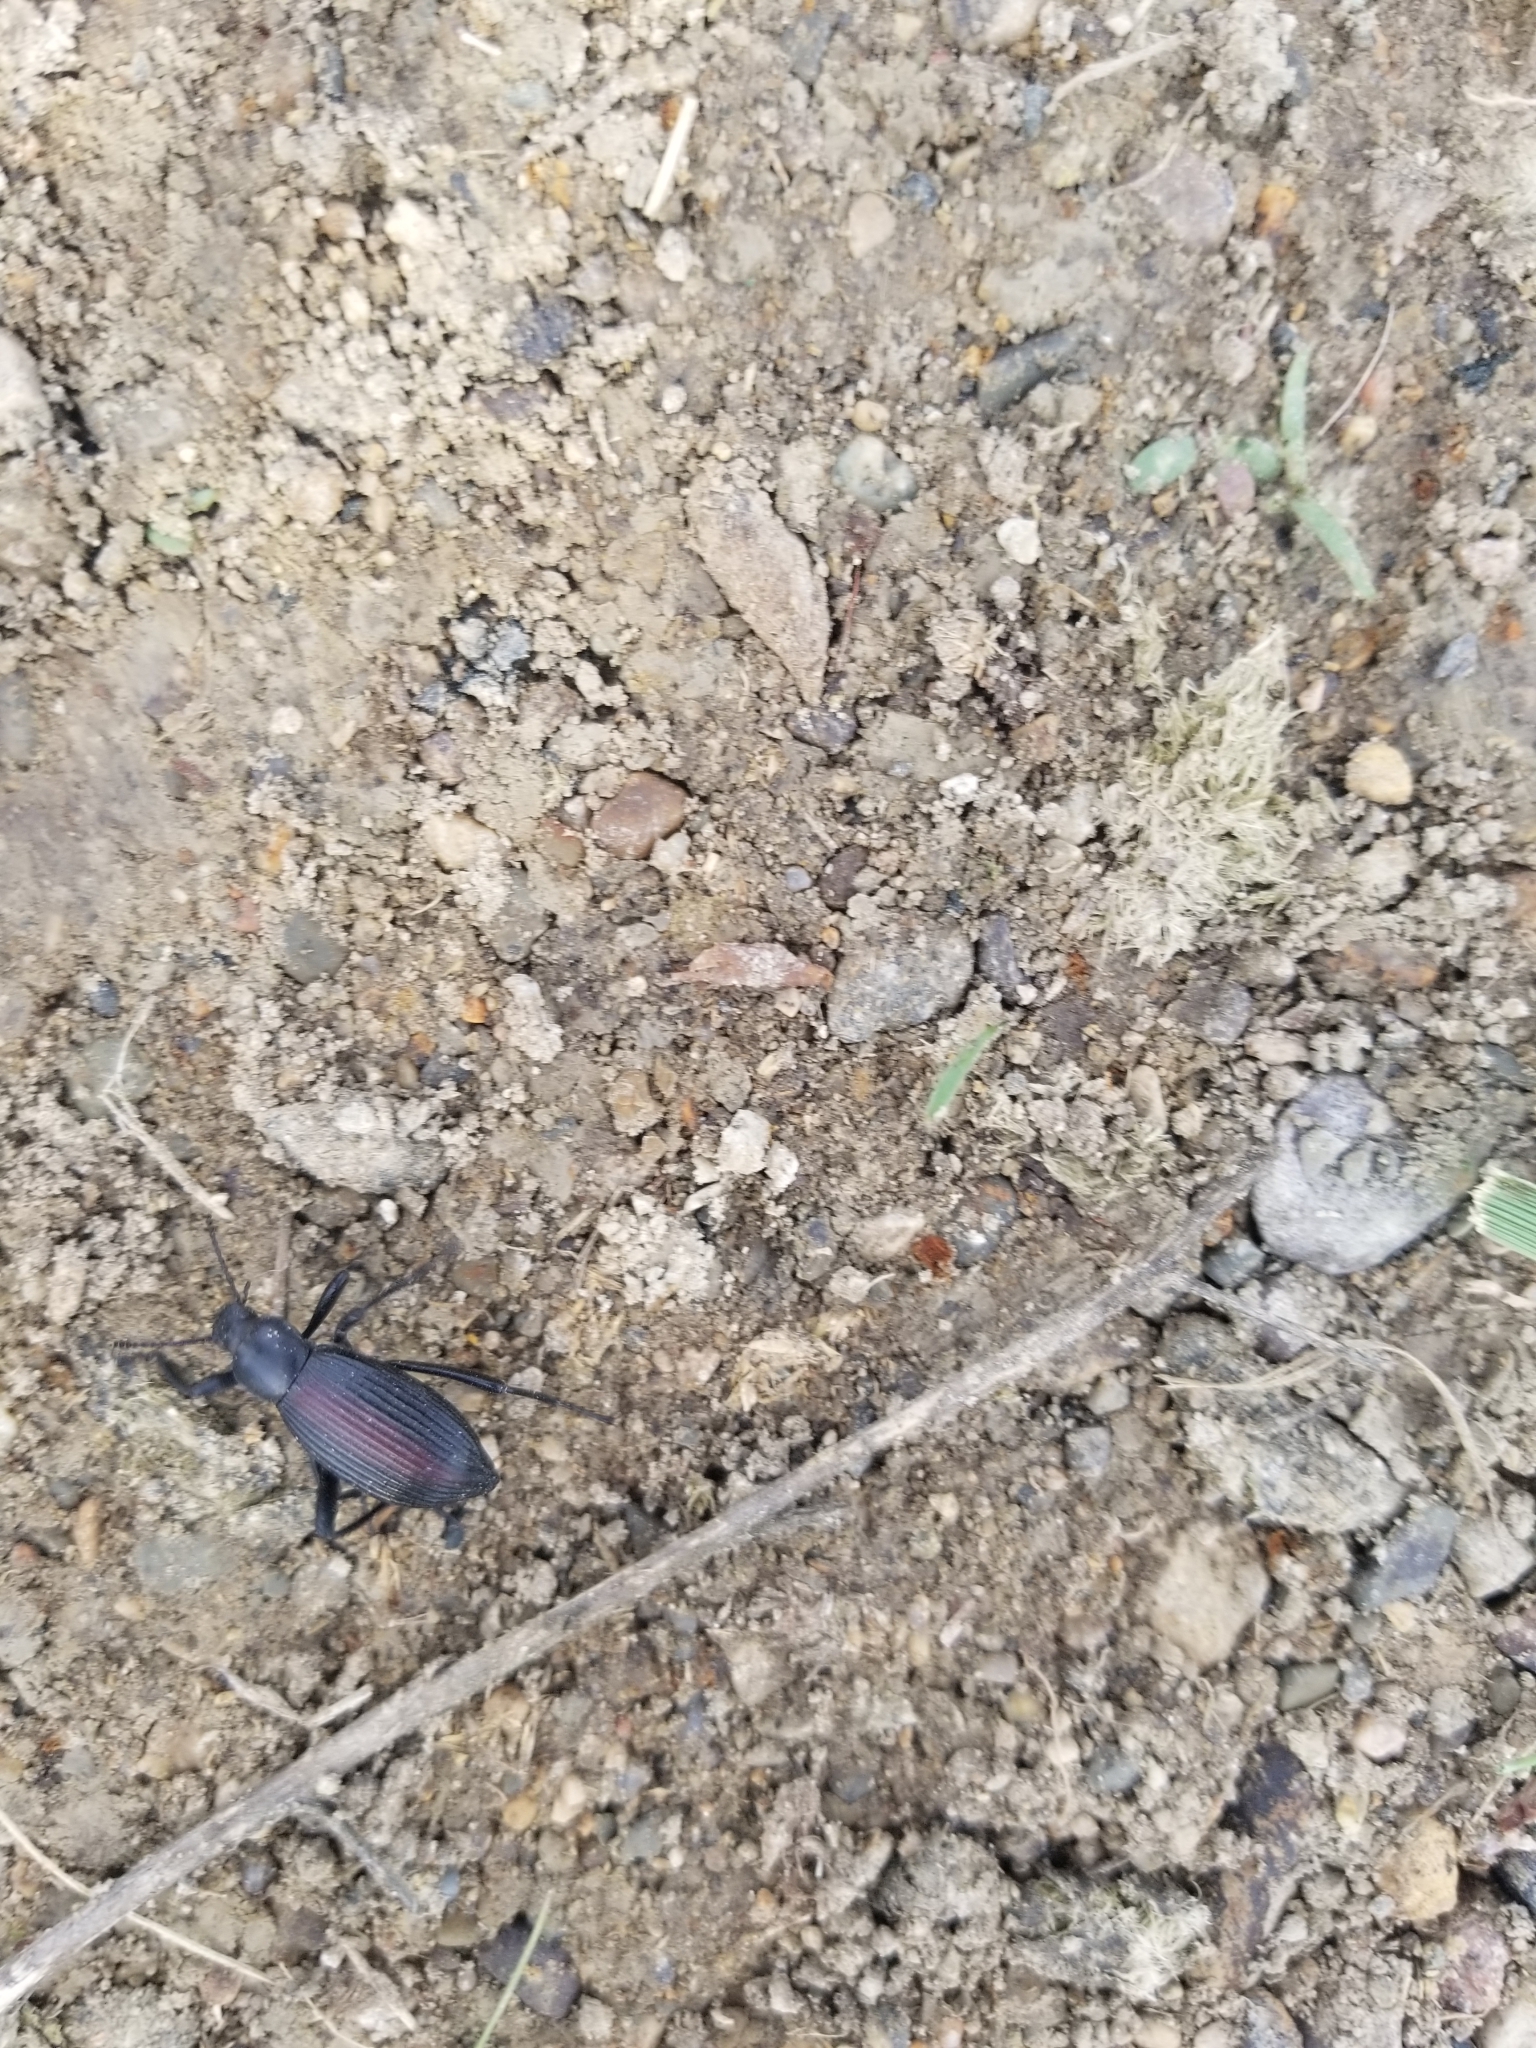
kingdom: Animalia
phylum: Arthropoda
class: Insecta
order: Coleoptera
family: Tenebrionidae
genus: Eleodes
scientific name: Eleodes hispilabris
